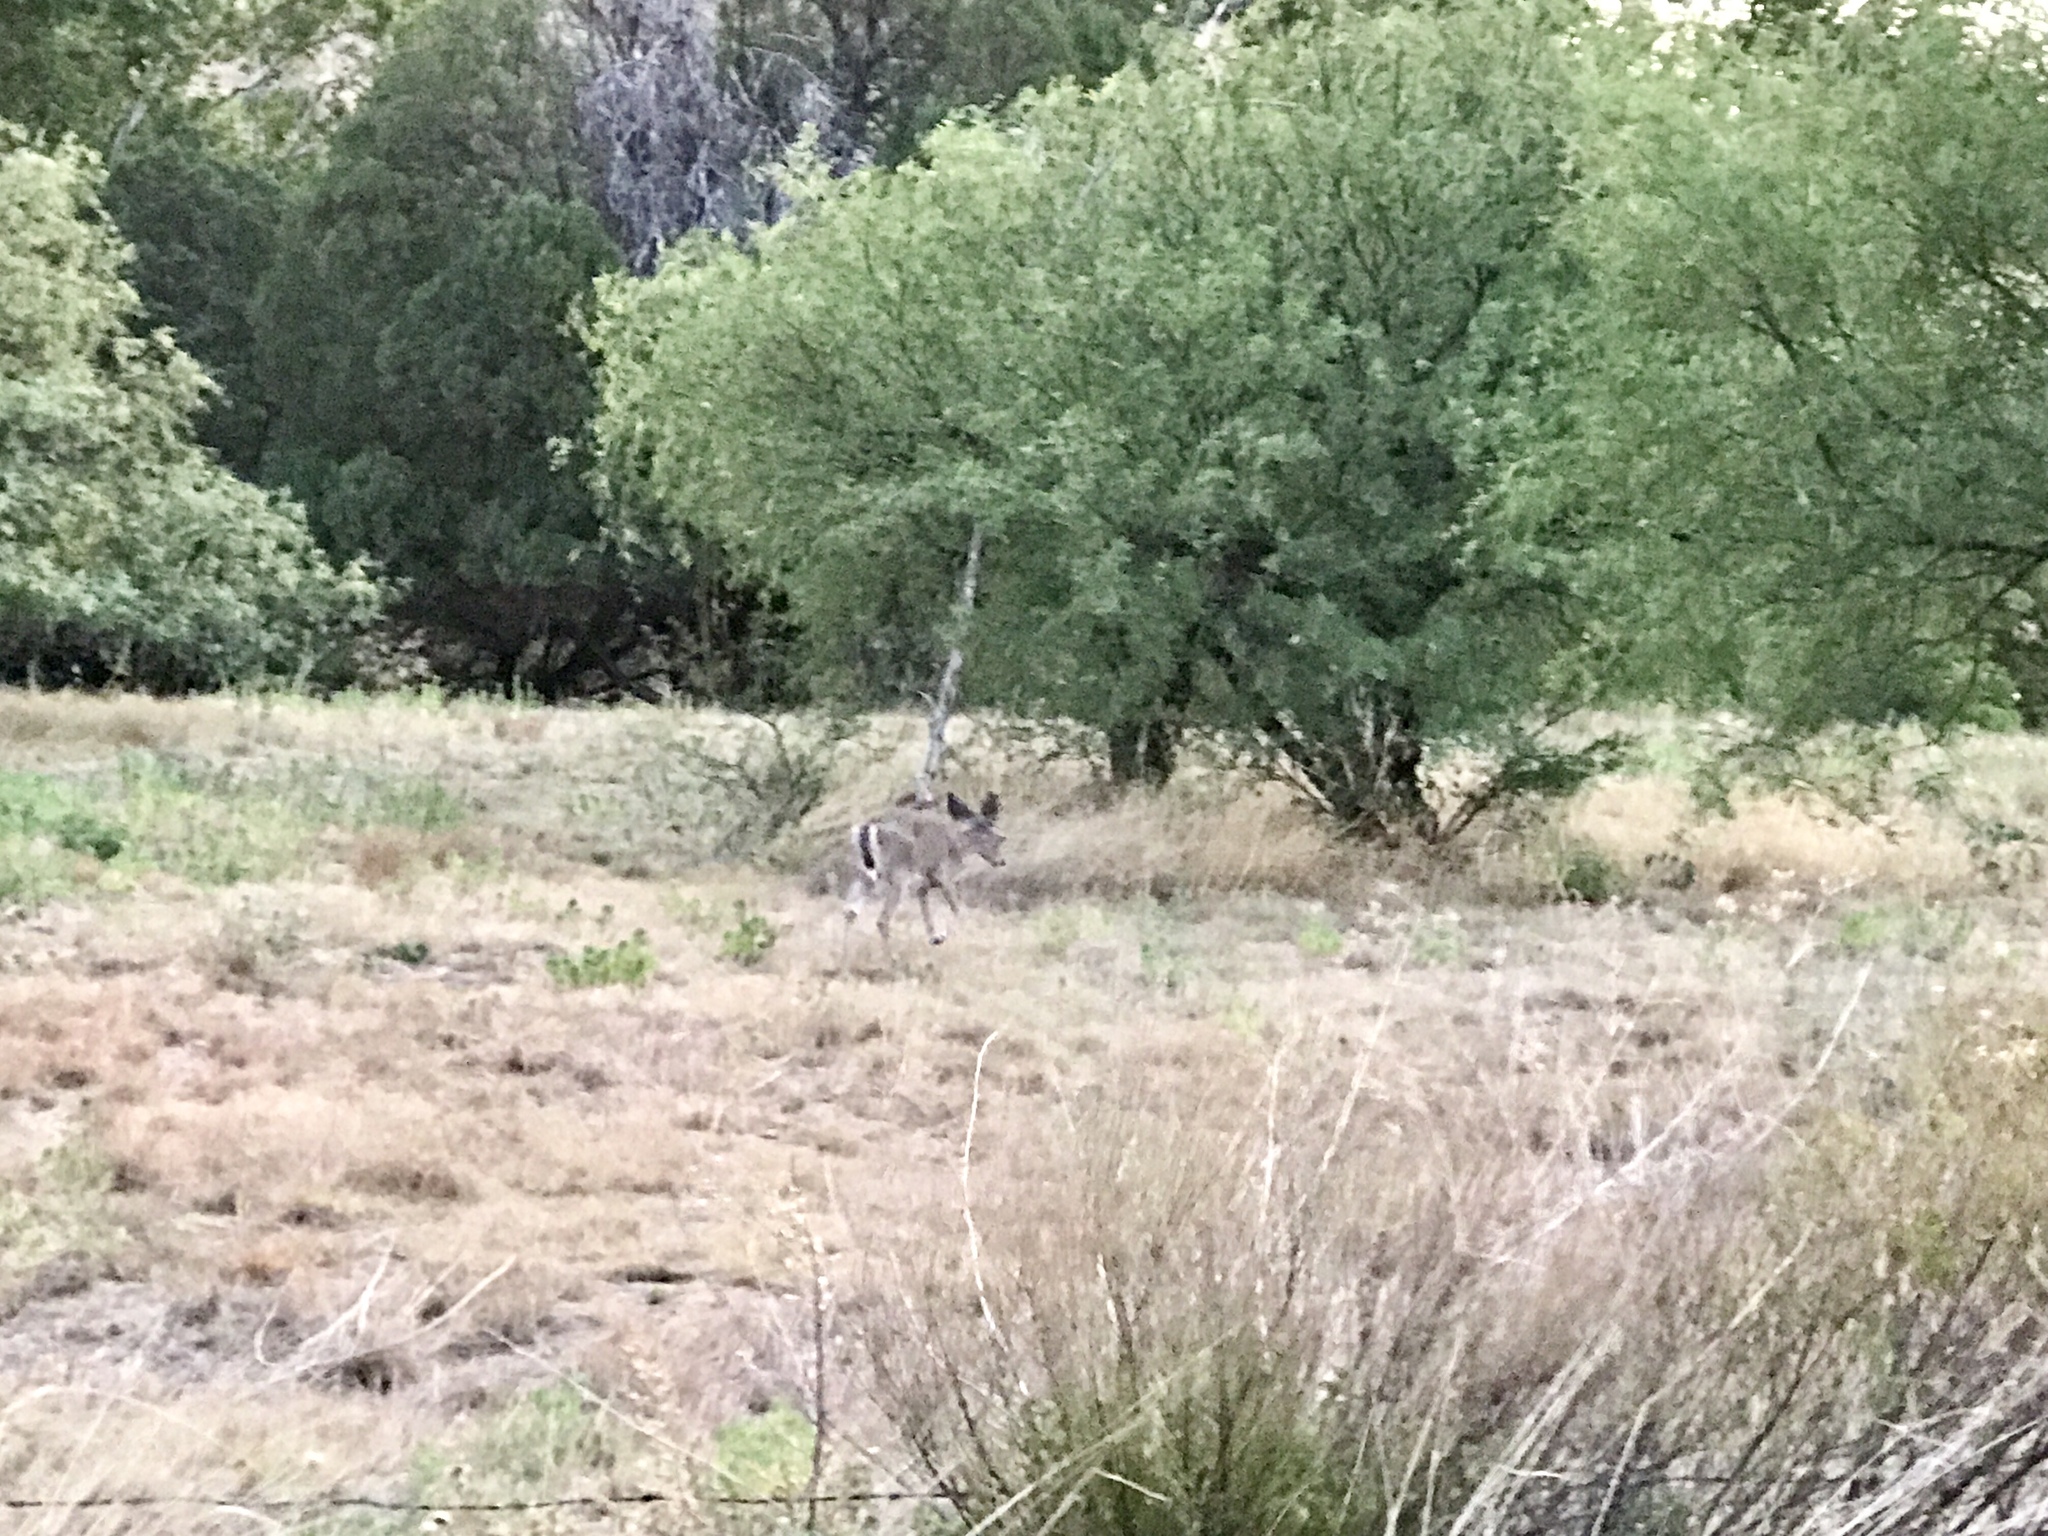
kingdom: Animalia
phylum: Chordata
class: Mammalia
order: Artiodactyla
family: Cervidae
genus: Odocoileus
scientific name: Odocoileus virginianus
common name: White-tailed deer
